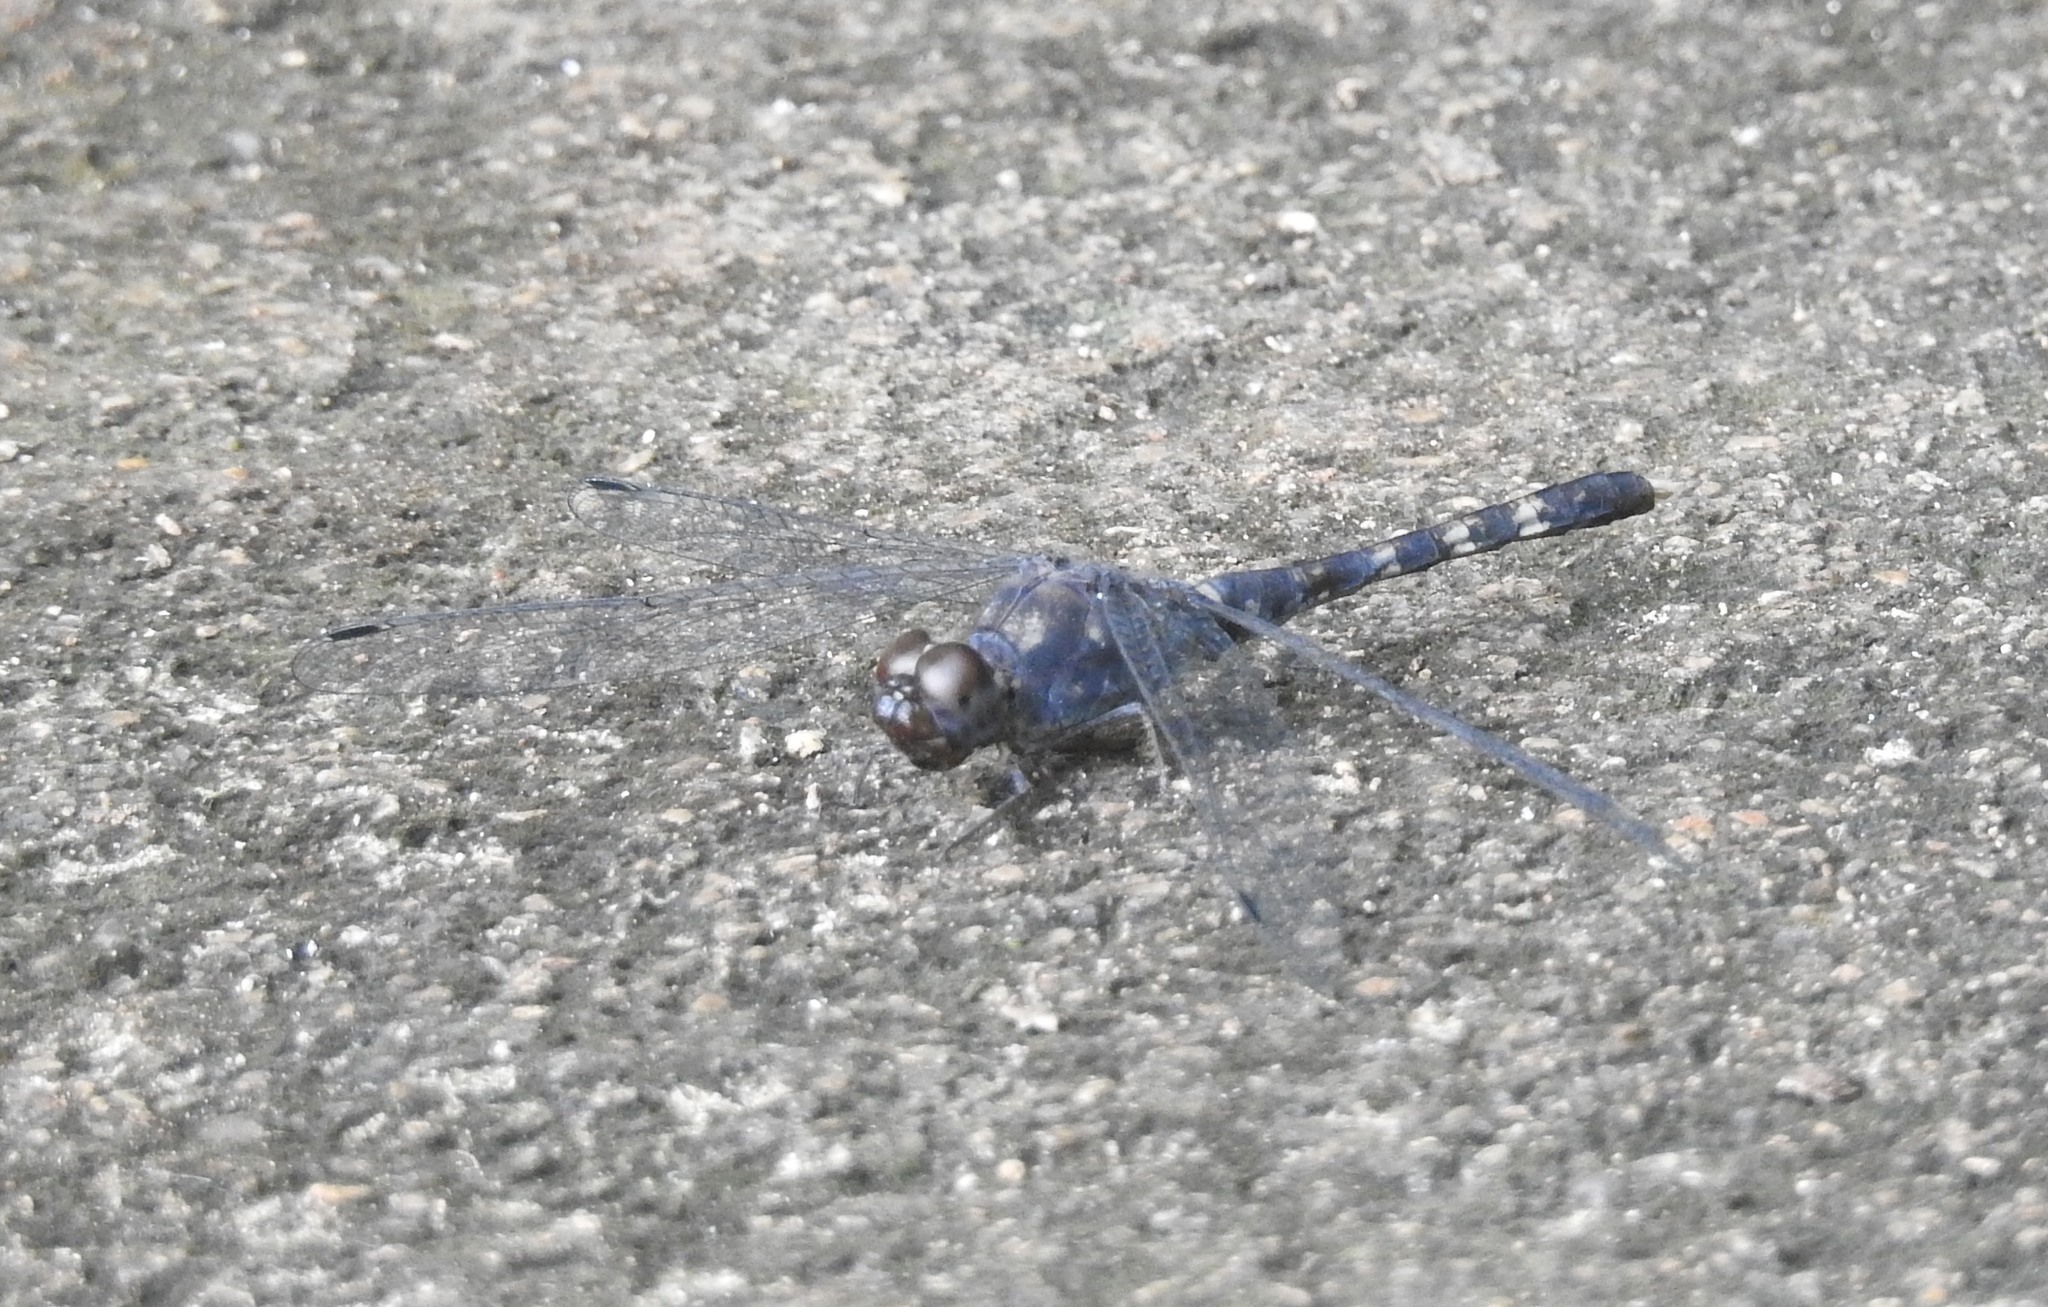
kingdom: Animalia
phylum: Arthropoda
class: Insecta
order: Odonata
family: Libellulidae
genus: Bradinopyga
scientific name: Bradinopyga geminata
